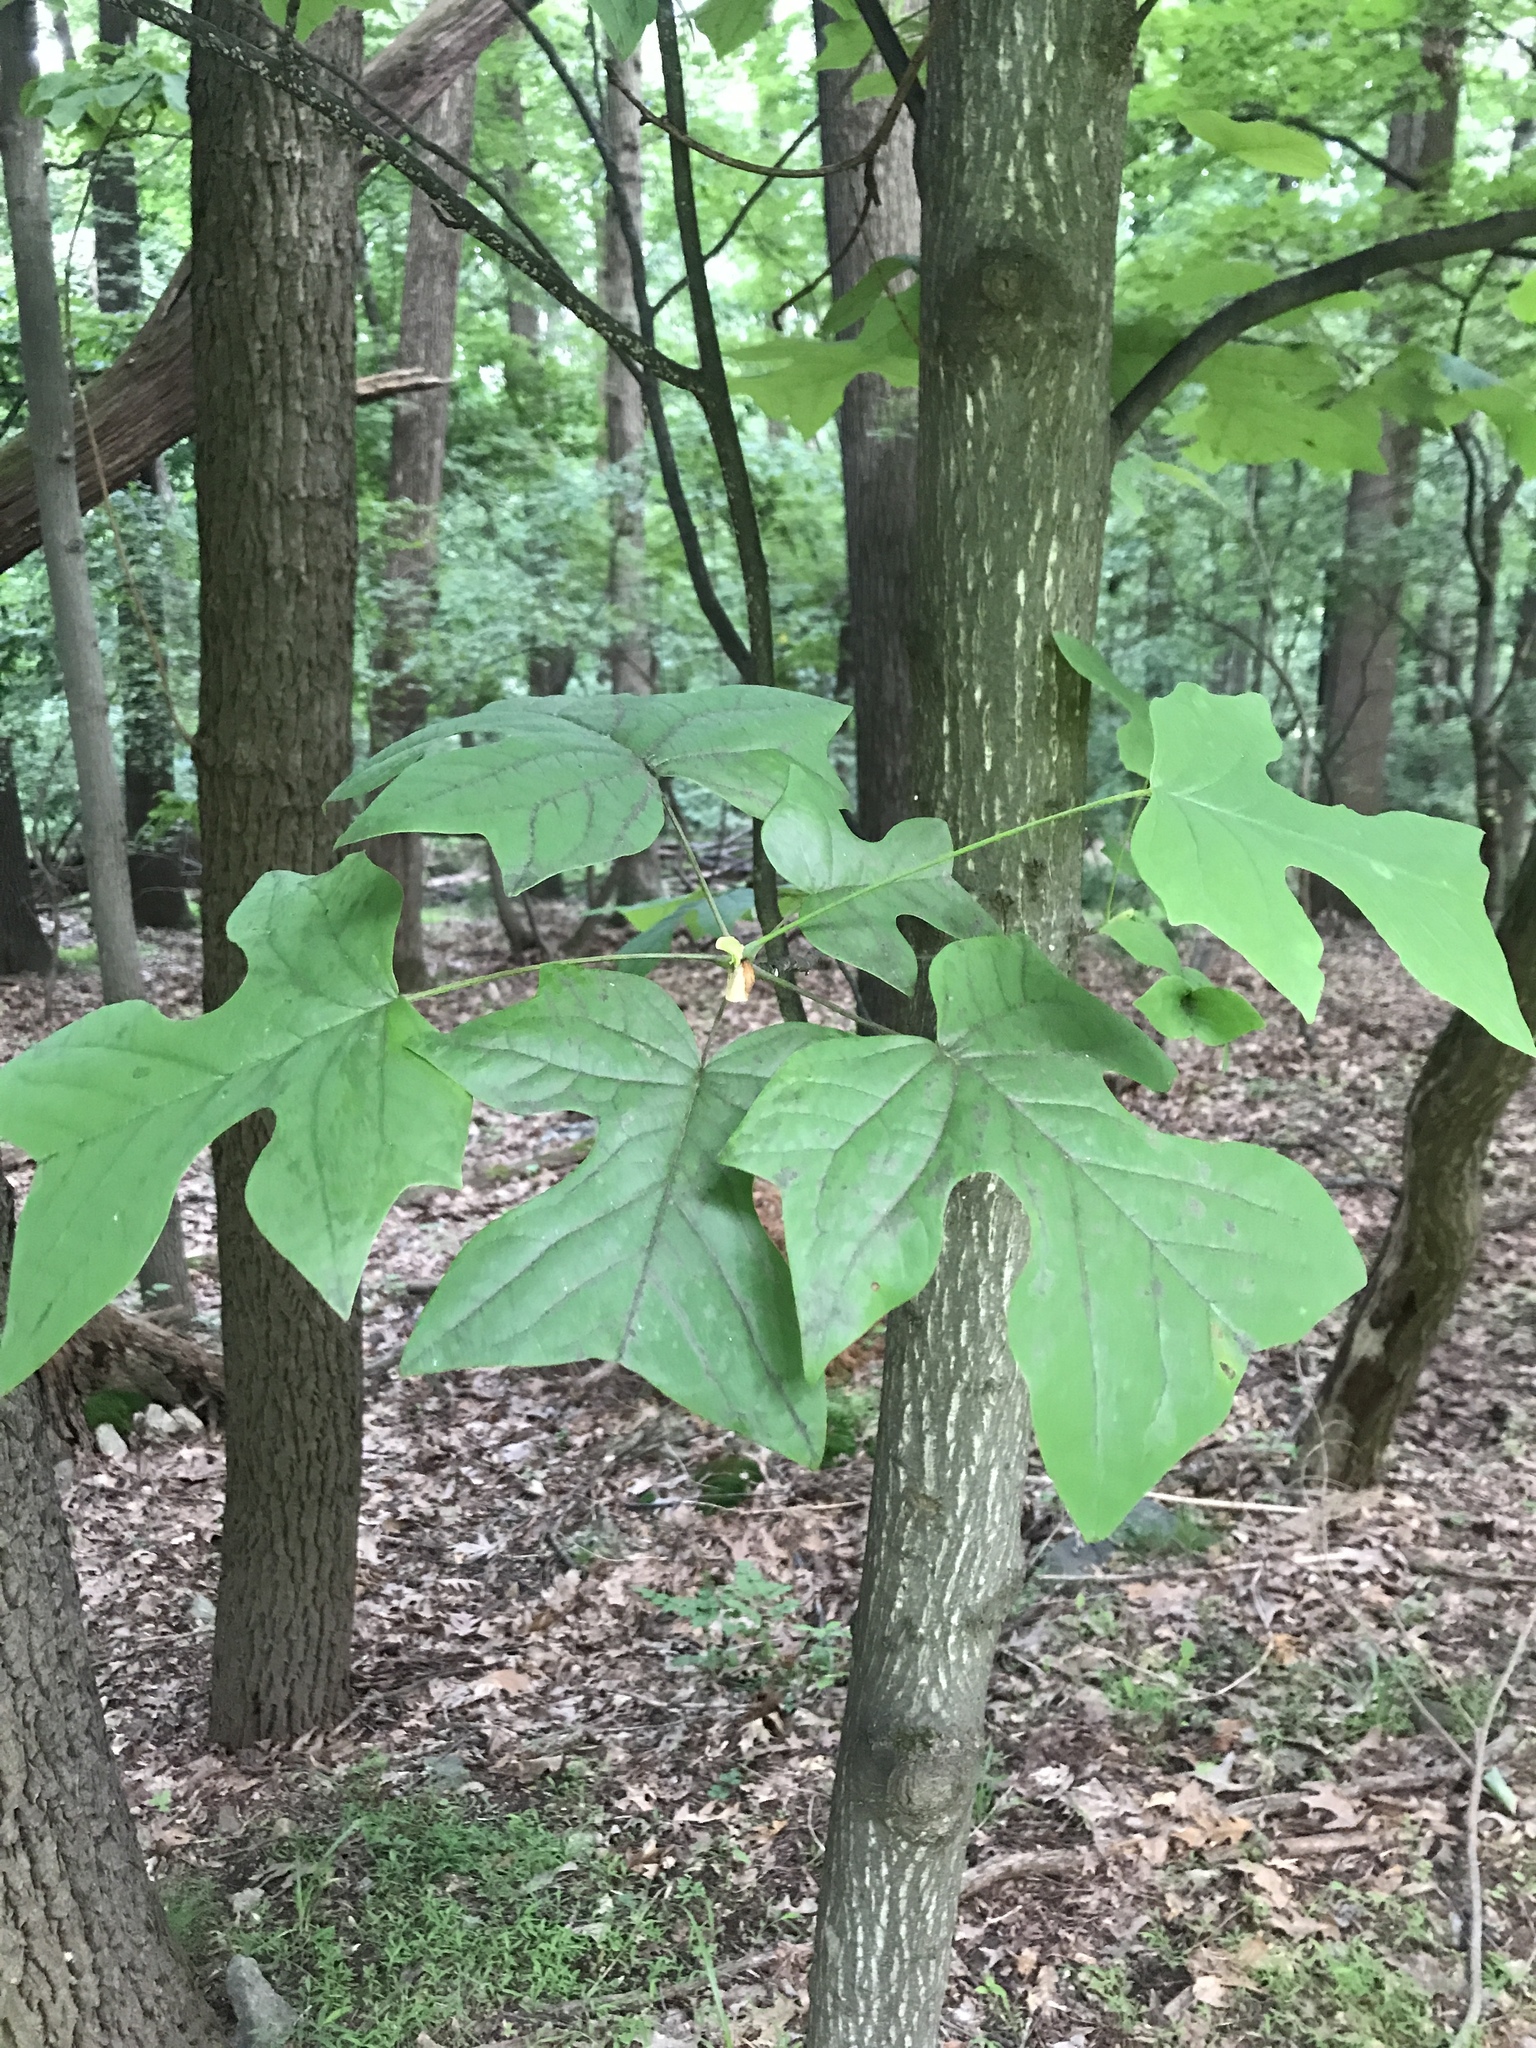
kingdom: Plantae
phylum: Tracheophyta
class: Magnoliopsida
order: Magnoliales
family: Magnoliaceae
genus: Liriodendron
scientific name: Liriodendron tulipifera
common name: Tulip tree
